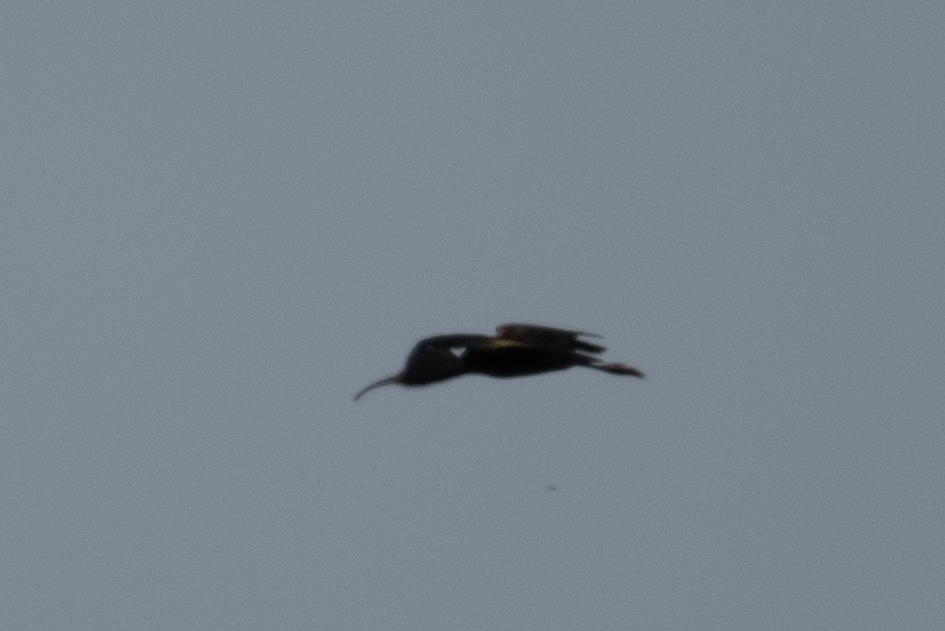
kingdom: Animalia
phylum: Chordata
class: Aves
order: Pelecaniformes
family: Threskiornithidae
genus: Plegadis
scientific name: Plegadis chihi
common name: White-faced ibis
